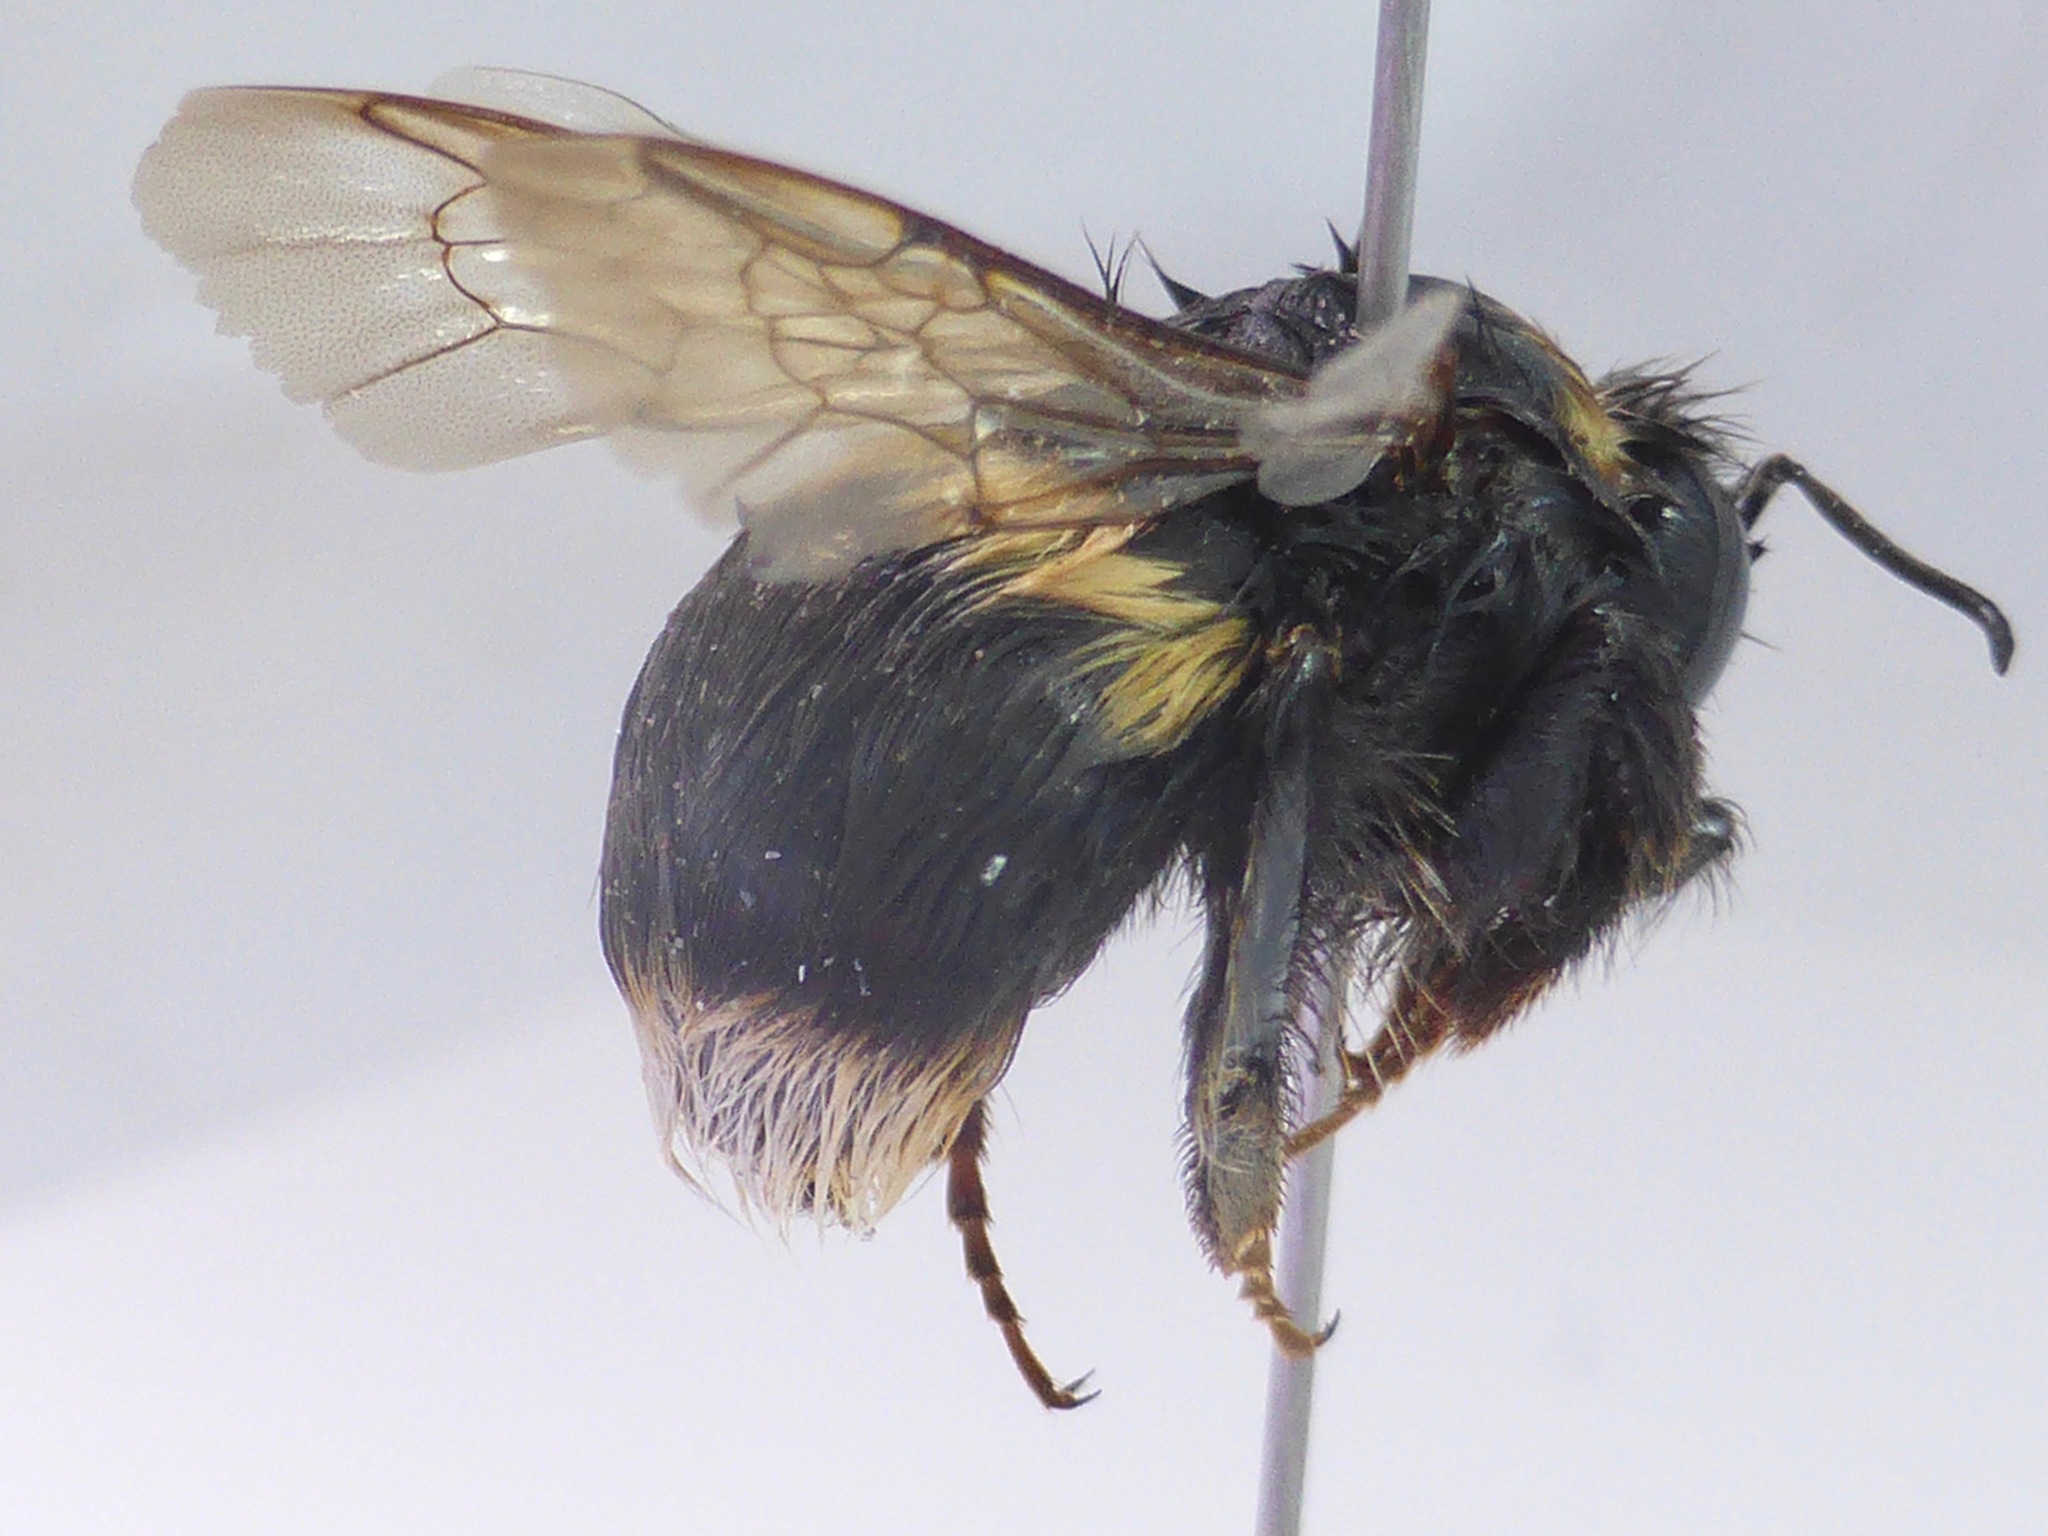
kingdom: Animalia
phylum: Arthropoda
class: Insecta
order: Hymenoptera
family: Apidae
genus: Bombus
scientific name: Bombus terrestris
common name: Buff-tailed bumblebee
